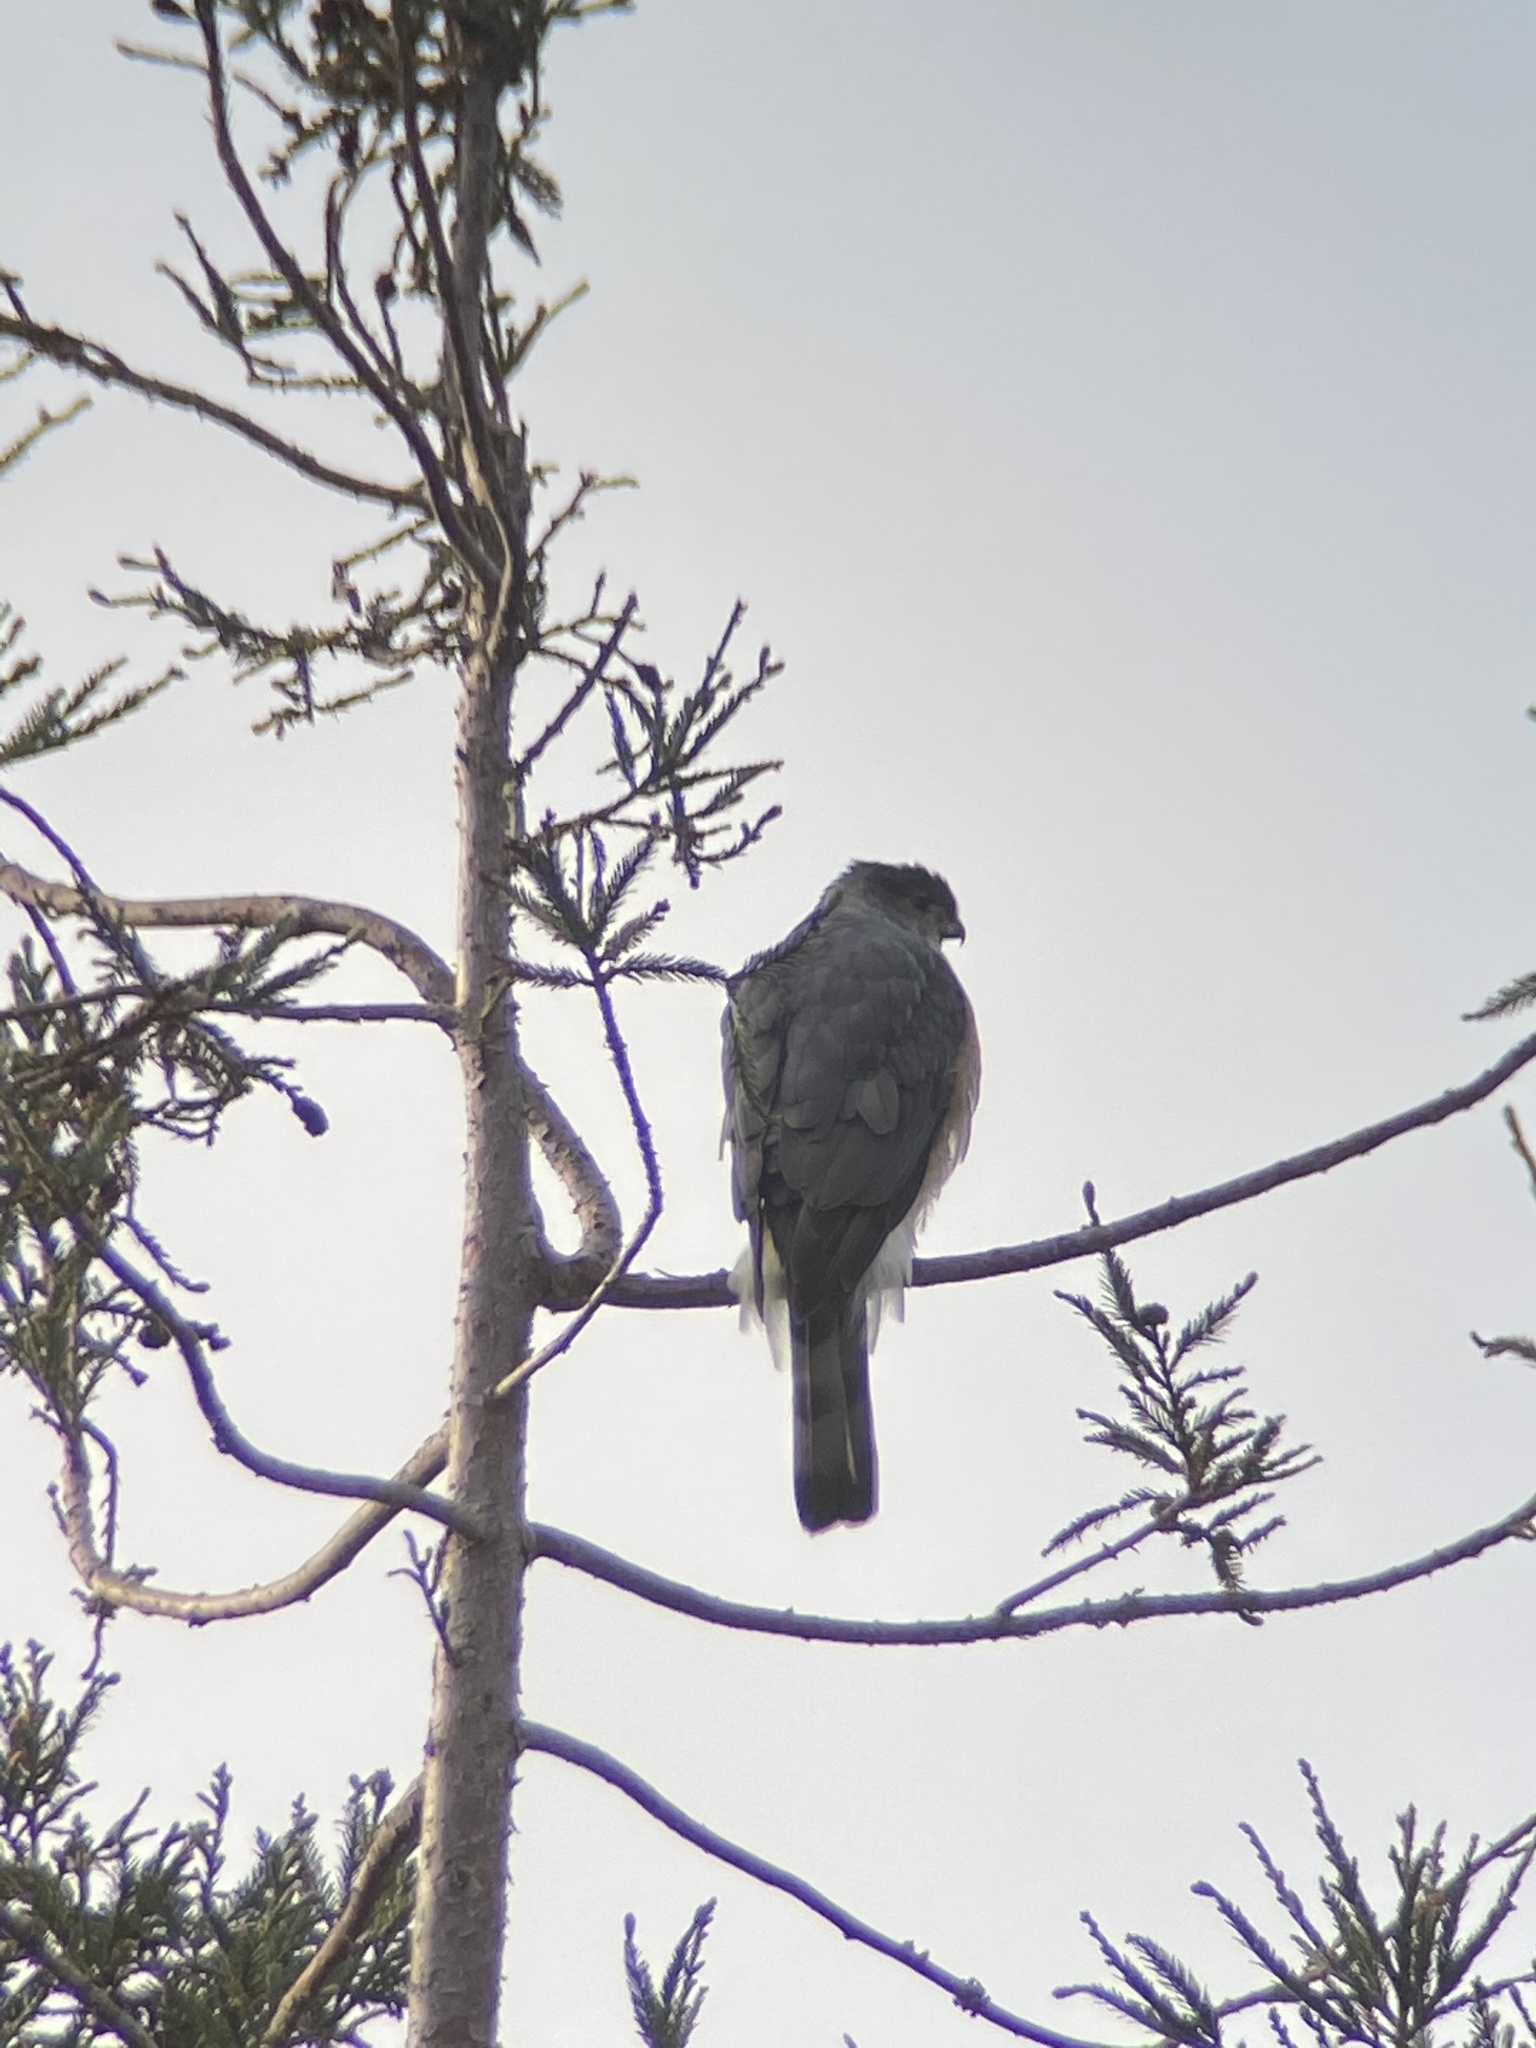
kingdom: Animalia
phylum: Chordata
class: Aves
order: Accipitriformes
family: Accipitridae
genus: Accipiter
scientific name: Accipiter cooperii
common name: Cooper's hawk
